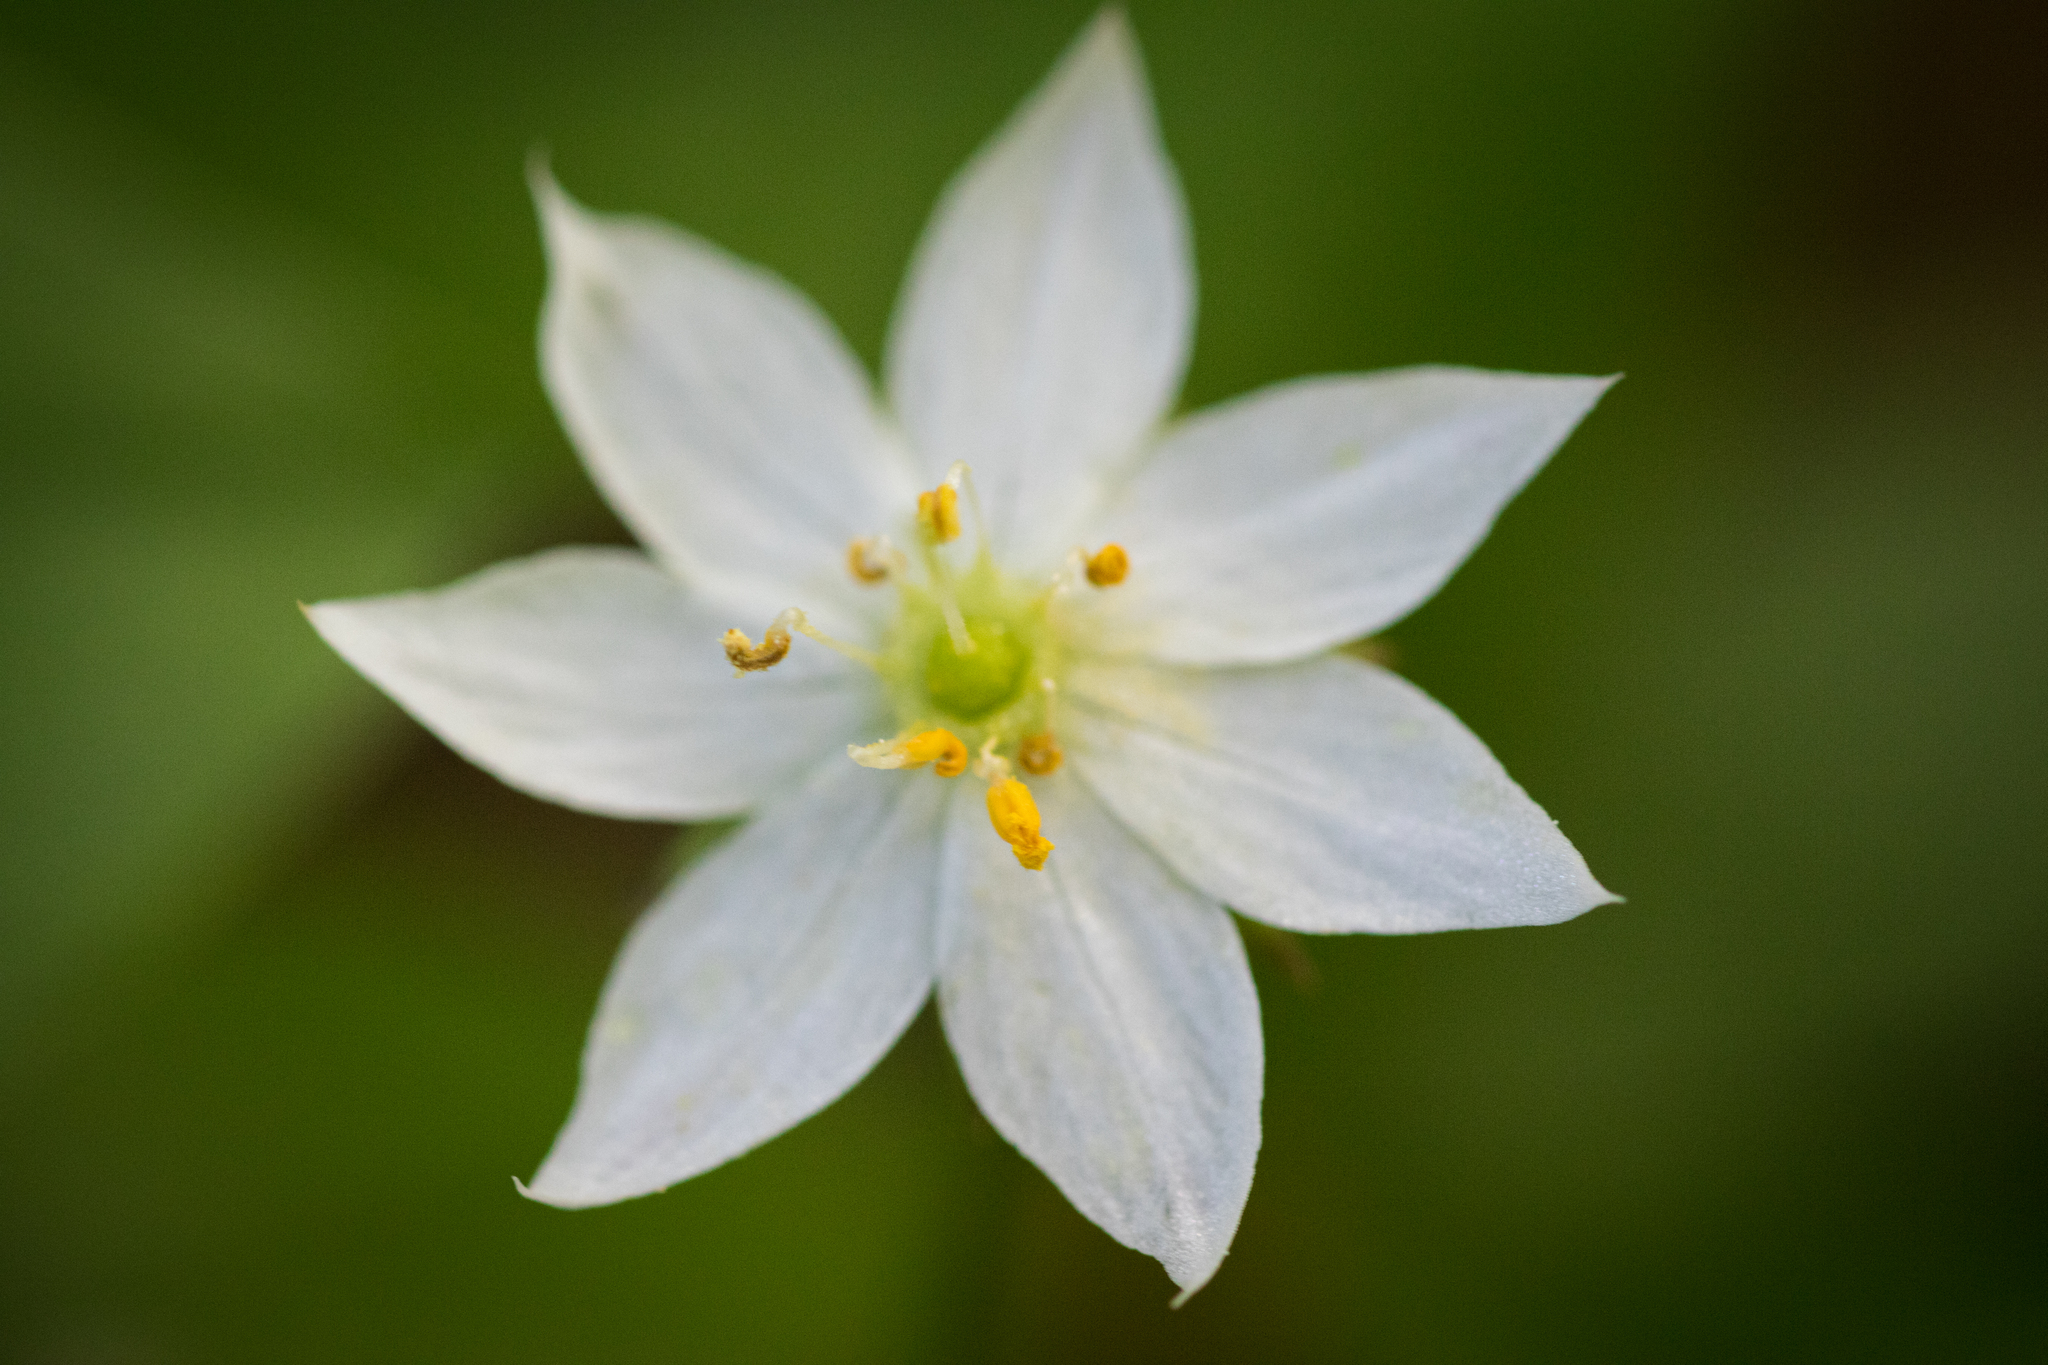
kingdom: Plantae
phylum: Tracheophyta
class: Magnoliopsida
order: Ericales
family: Primulaceae
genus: Lysimachia
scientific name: Lysimachia europaea
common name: Arctic starflower
